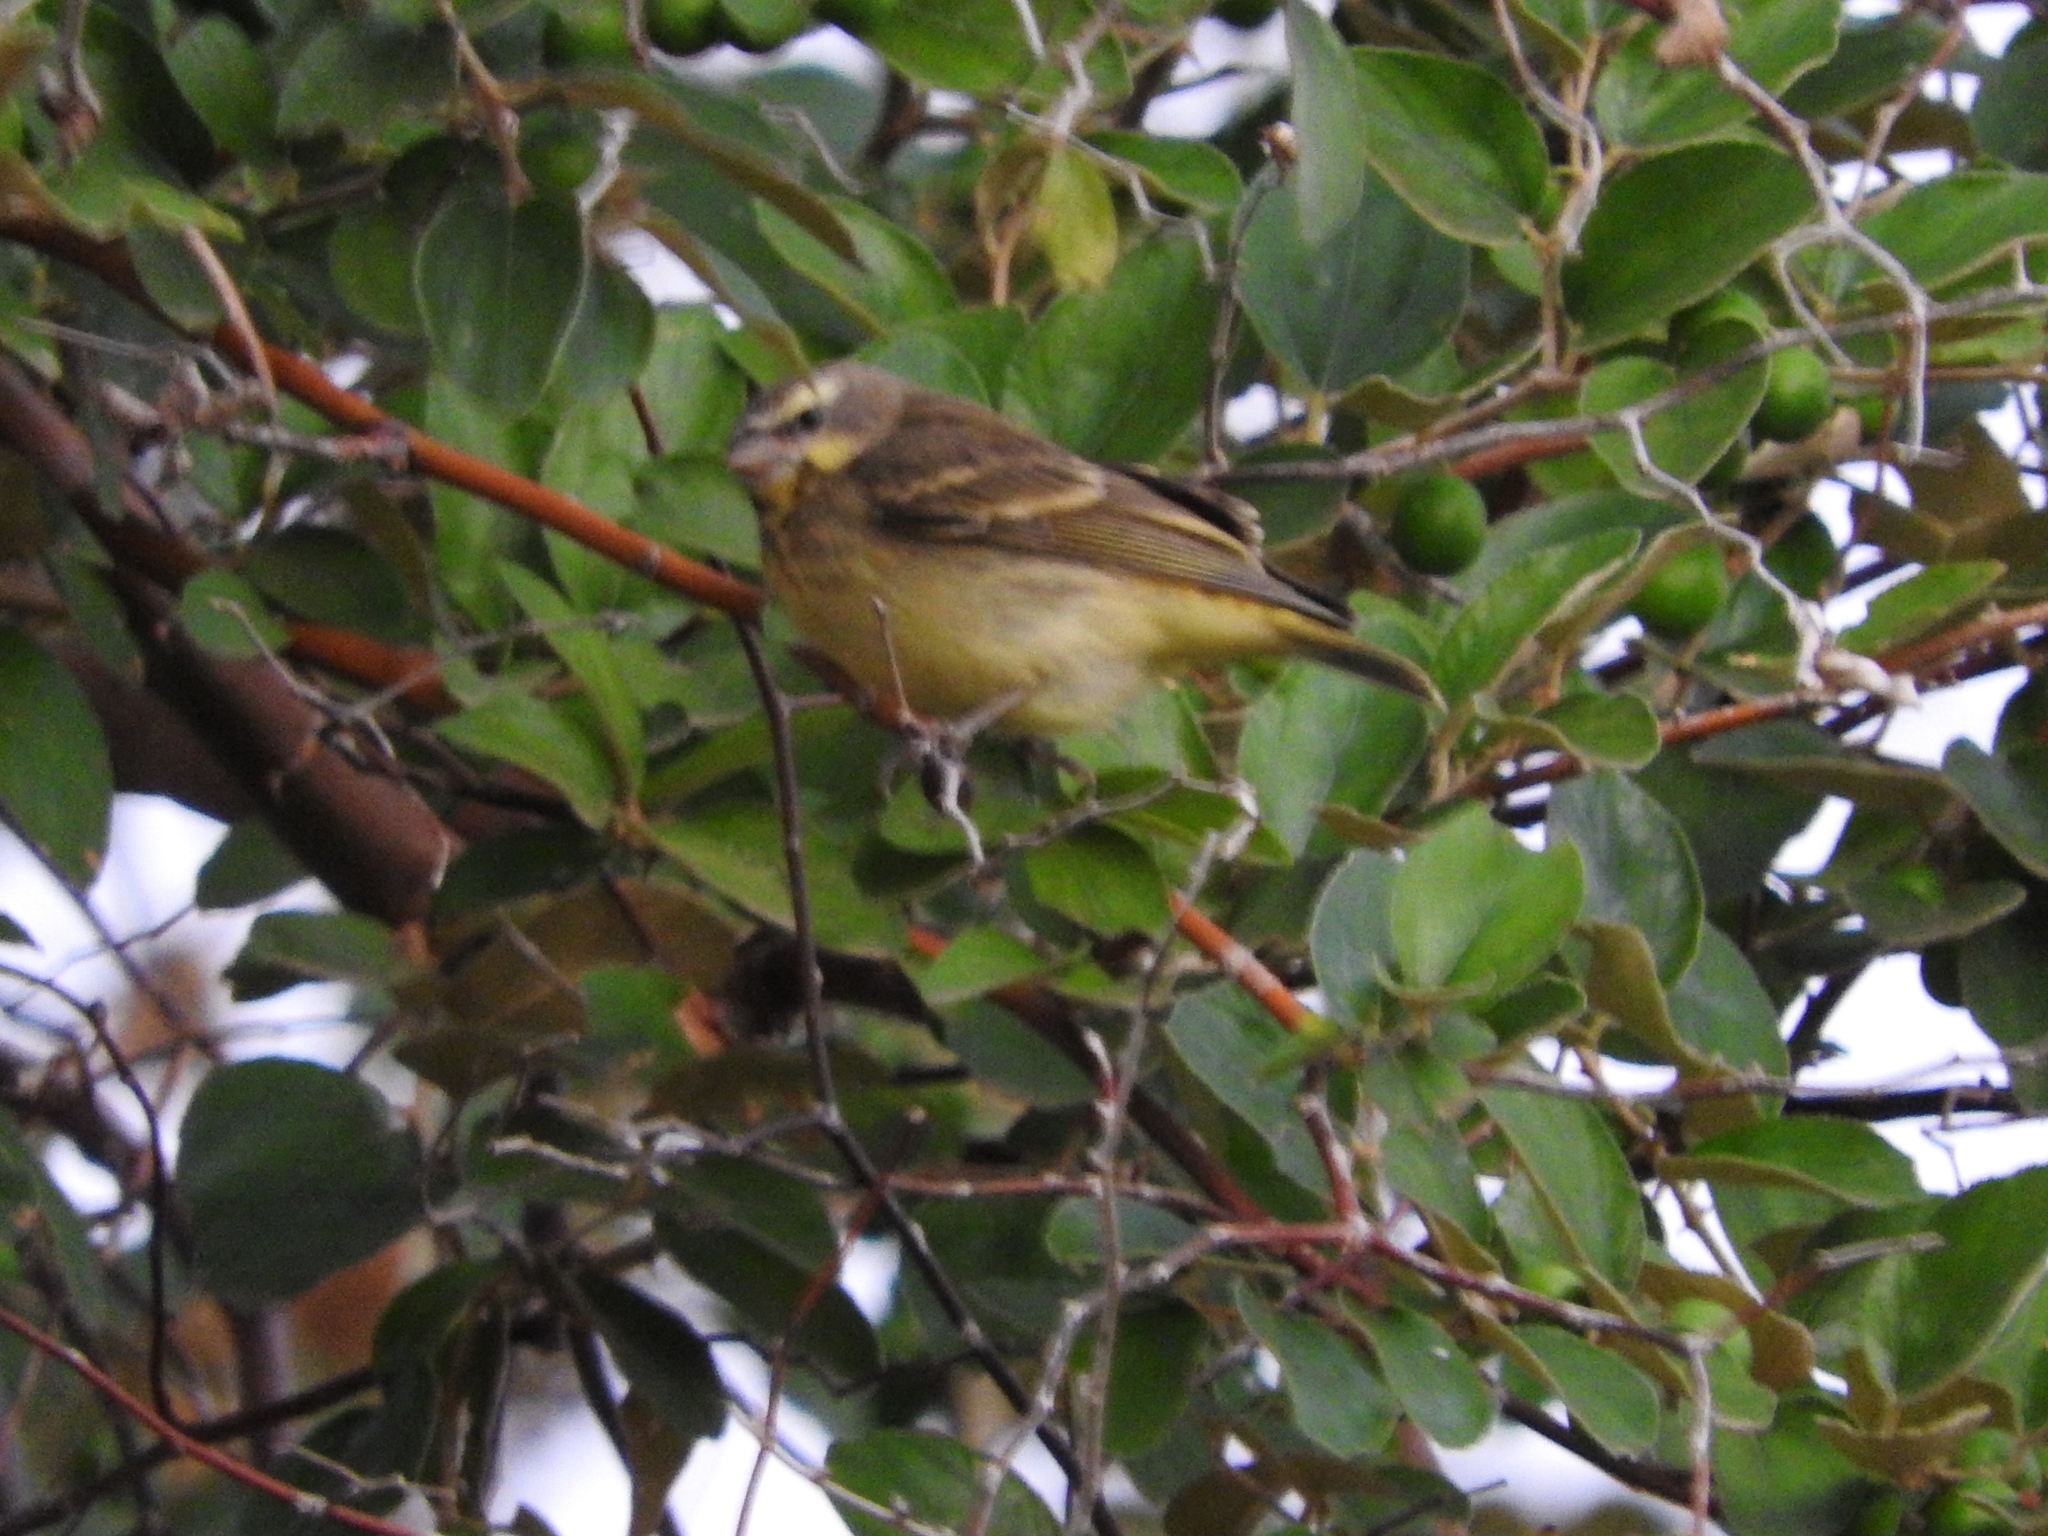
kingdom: Animalia
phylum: Chordata
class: Aves
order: Passeriformes
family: Fringillidae
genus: Crithagra
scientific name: Crithagra mozambica
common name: Yellow-fronted canary
